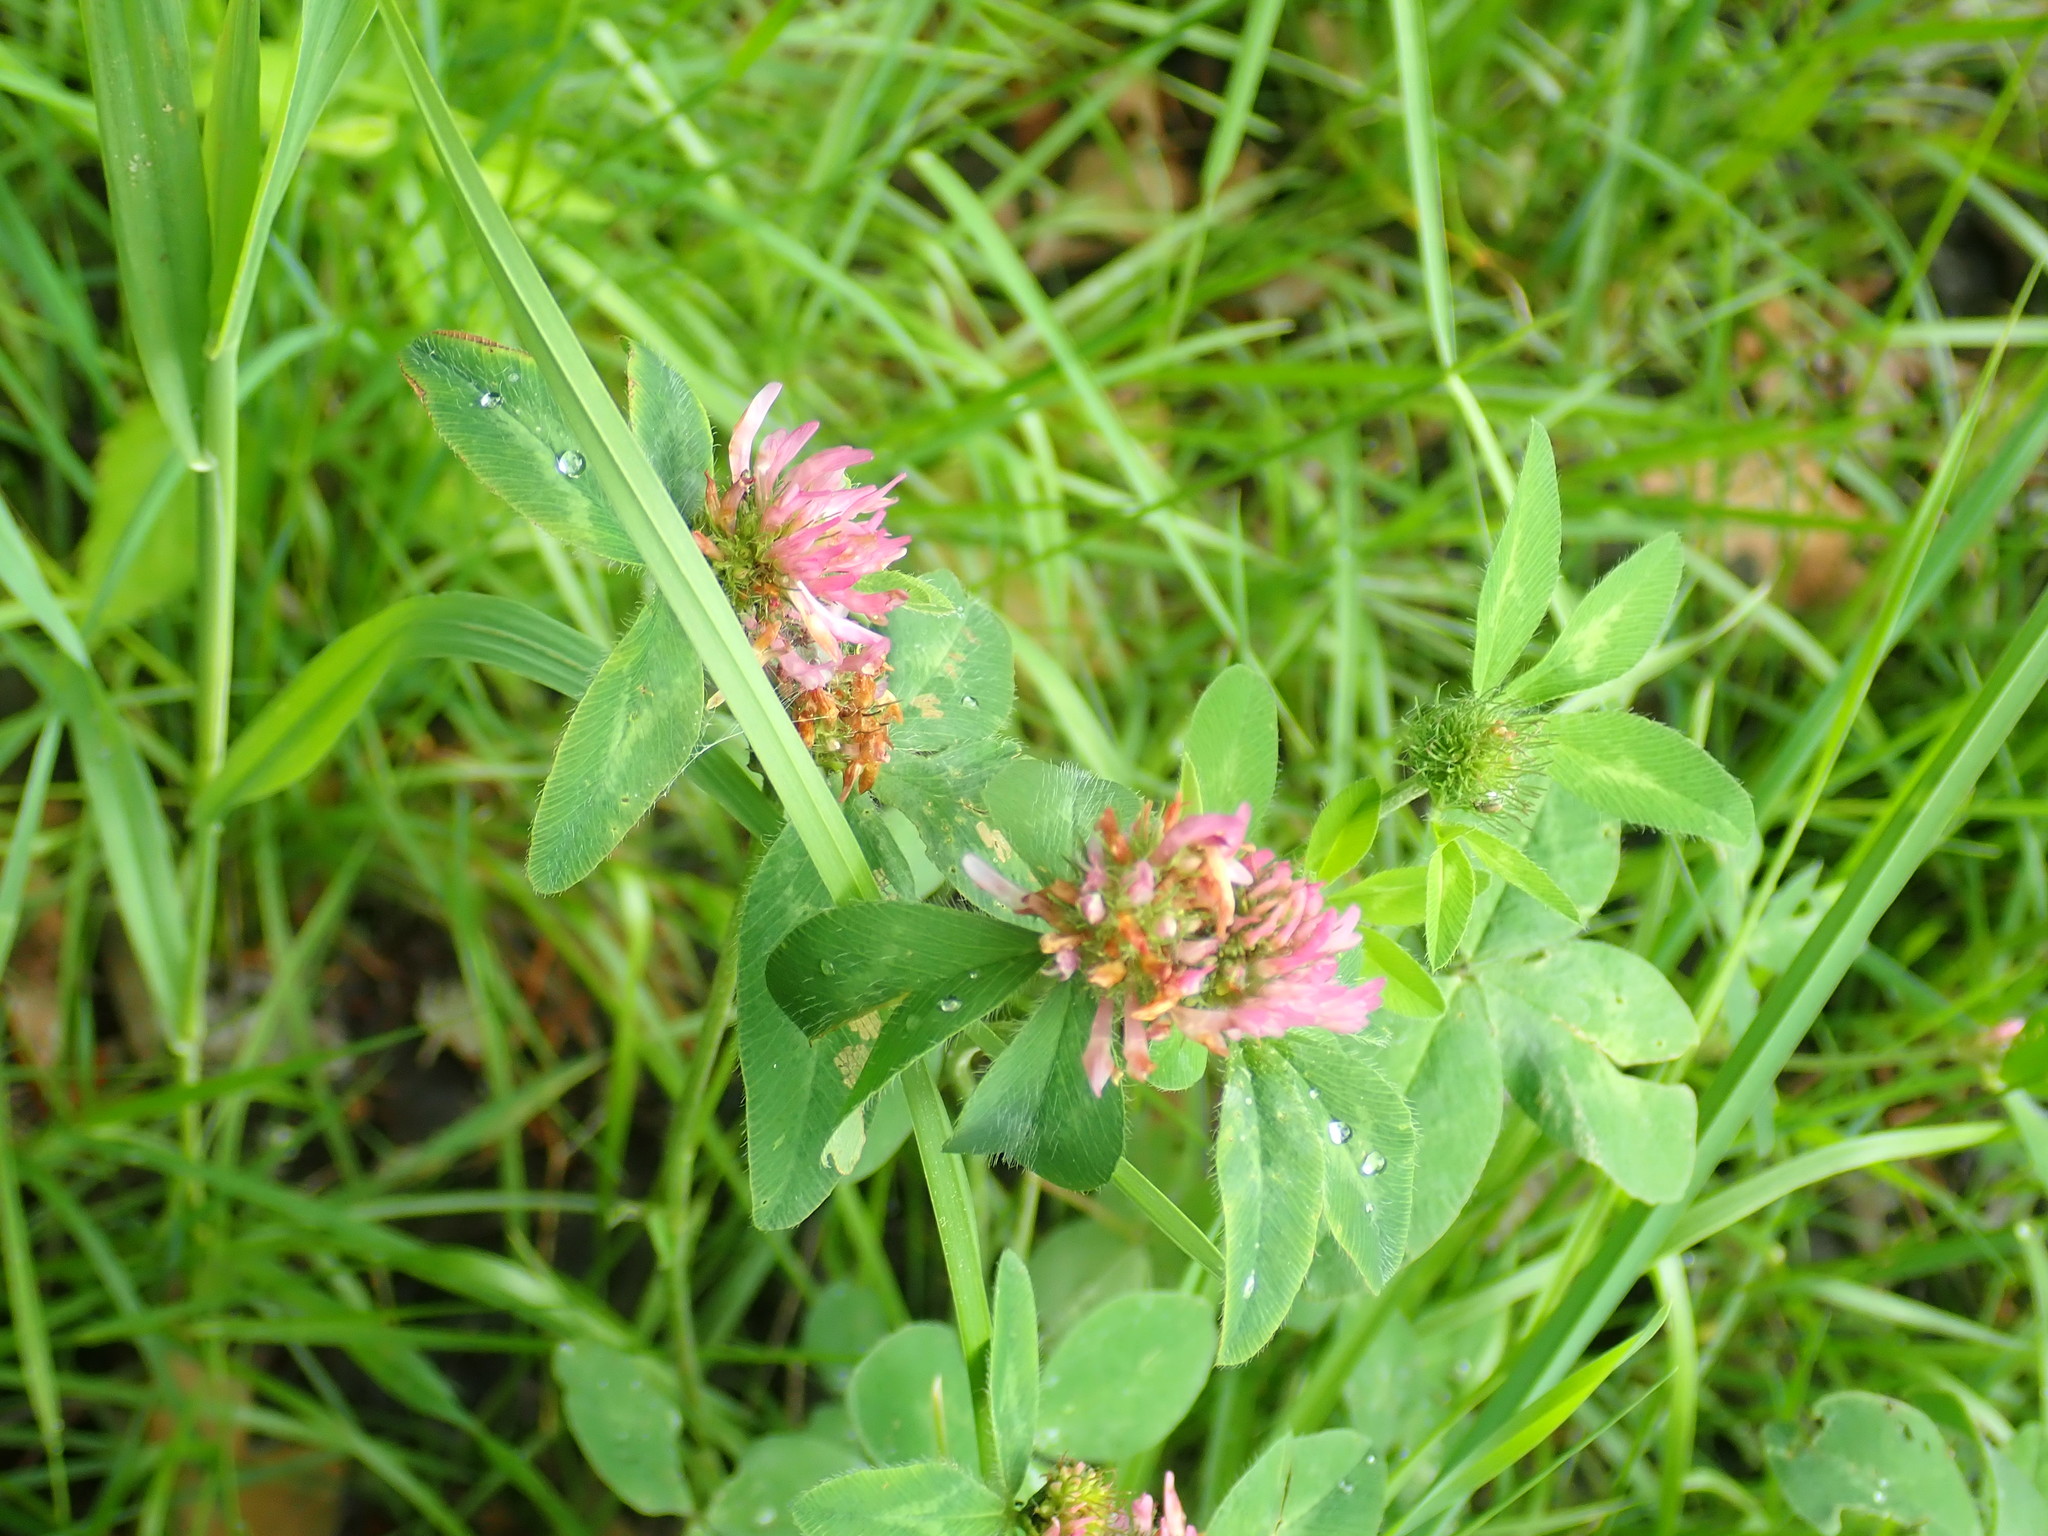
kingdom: Plantae
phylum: Tracheophyta
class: Magnoliopsida
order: Fabales
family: Fabaceae
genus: Trifolium
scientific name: Trifolium pratense
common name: Red clover
